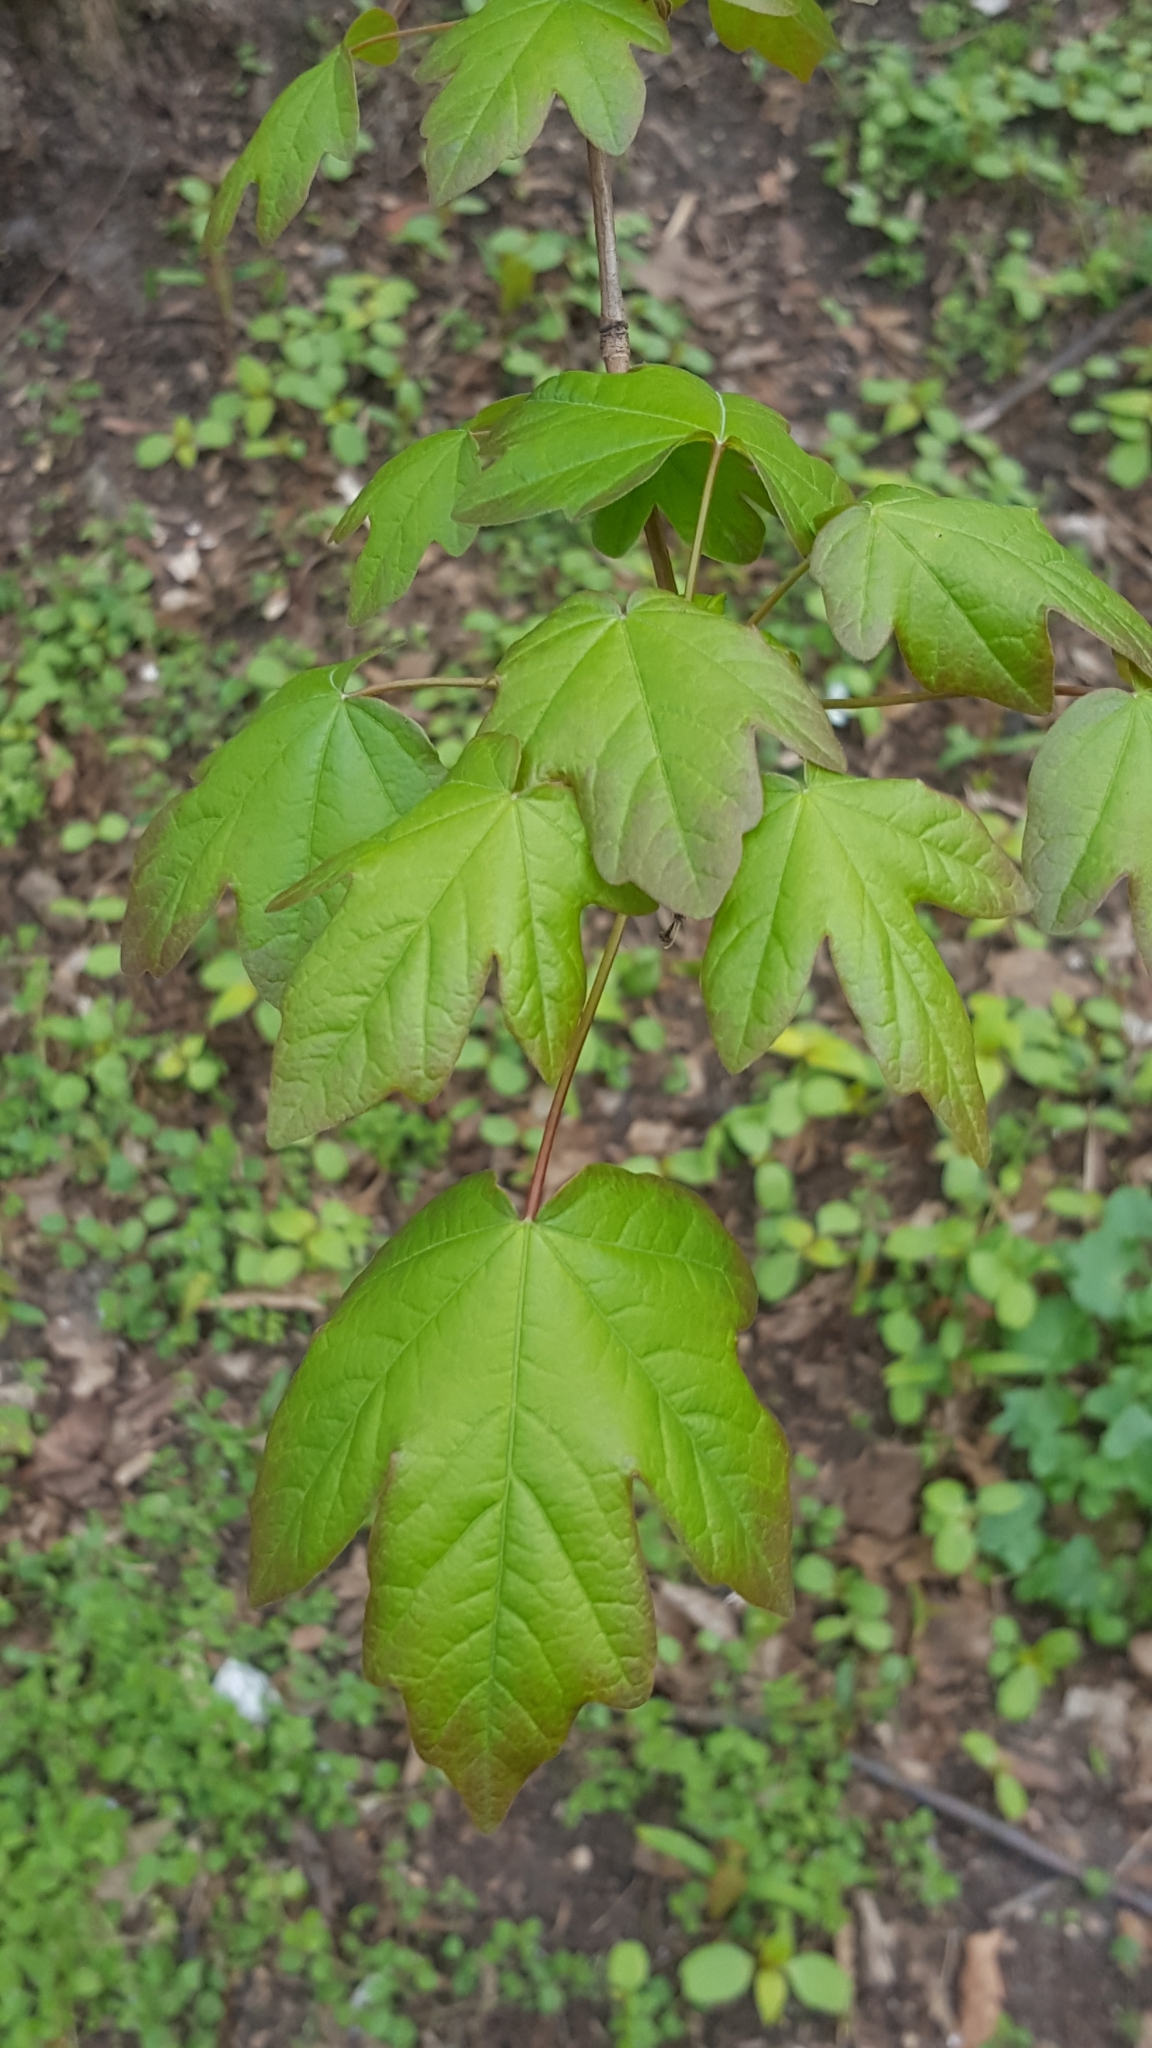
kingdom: Plantae
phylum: Tracheophyta
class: Magnoliopsida
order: Sapindales
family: Sapindaceae
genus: Acer
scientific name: Acer campestre
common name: Field maple
